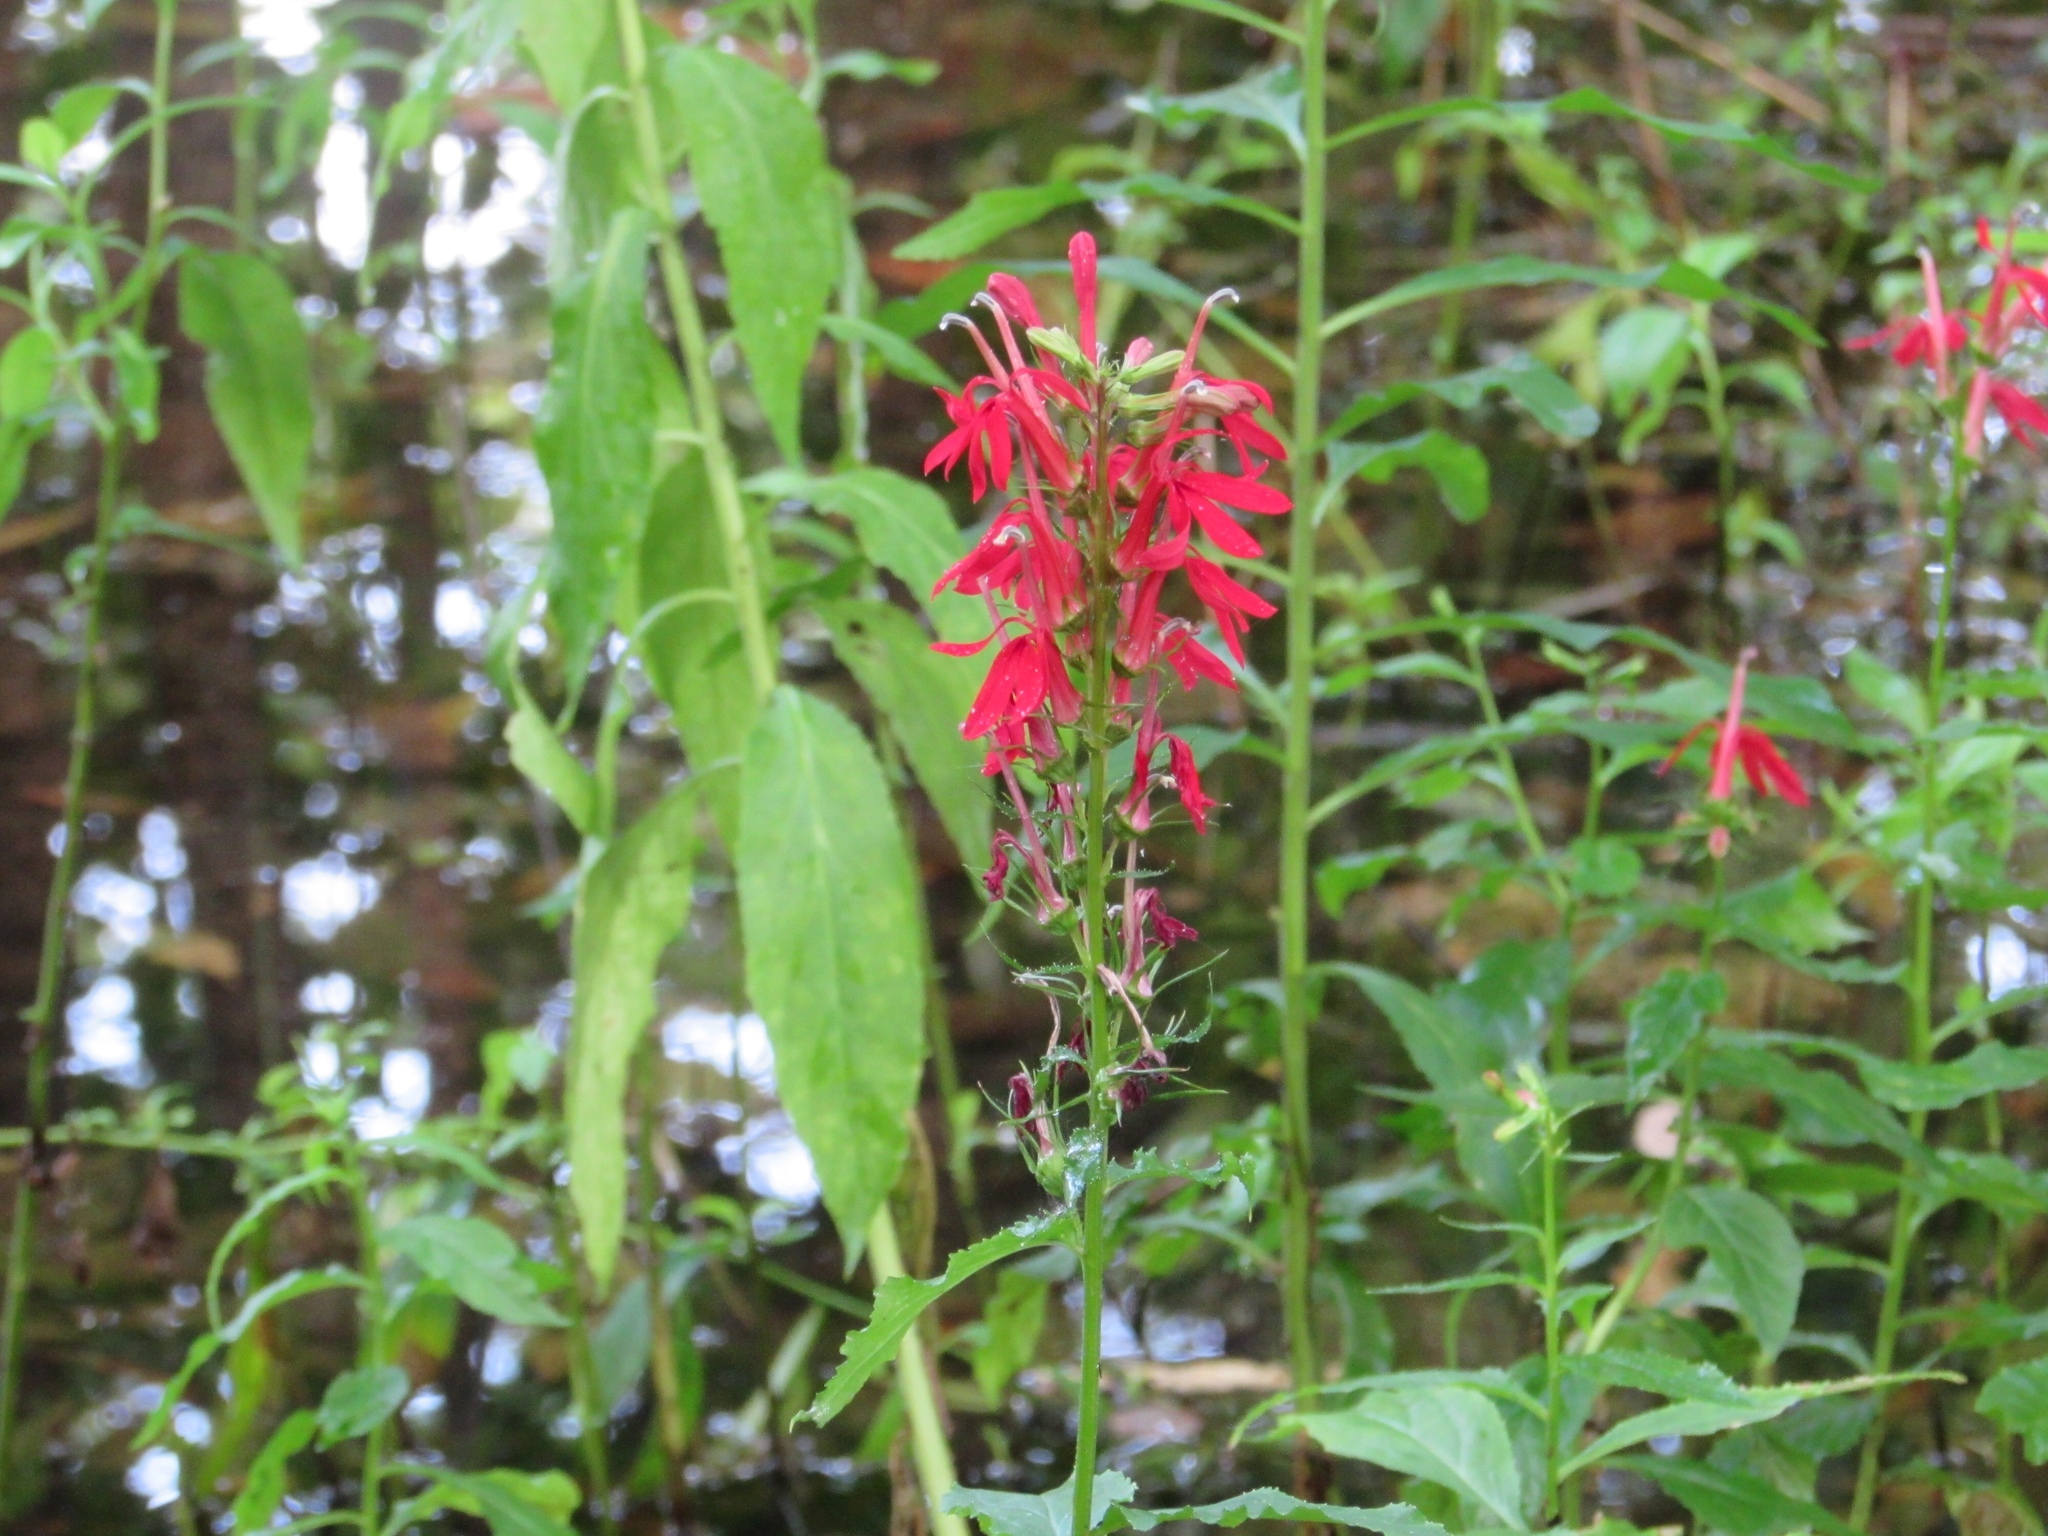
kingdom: Plantae
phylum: Tracheophyta
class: Magnoliopsida
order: Asterales
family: Campanulaceae
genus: Lobelia
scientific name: Lobelia cardinalis
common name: Cardinal flower
